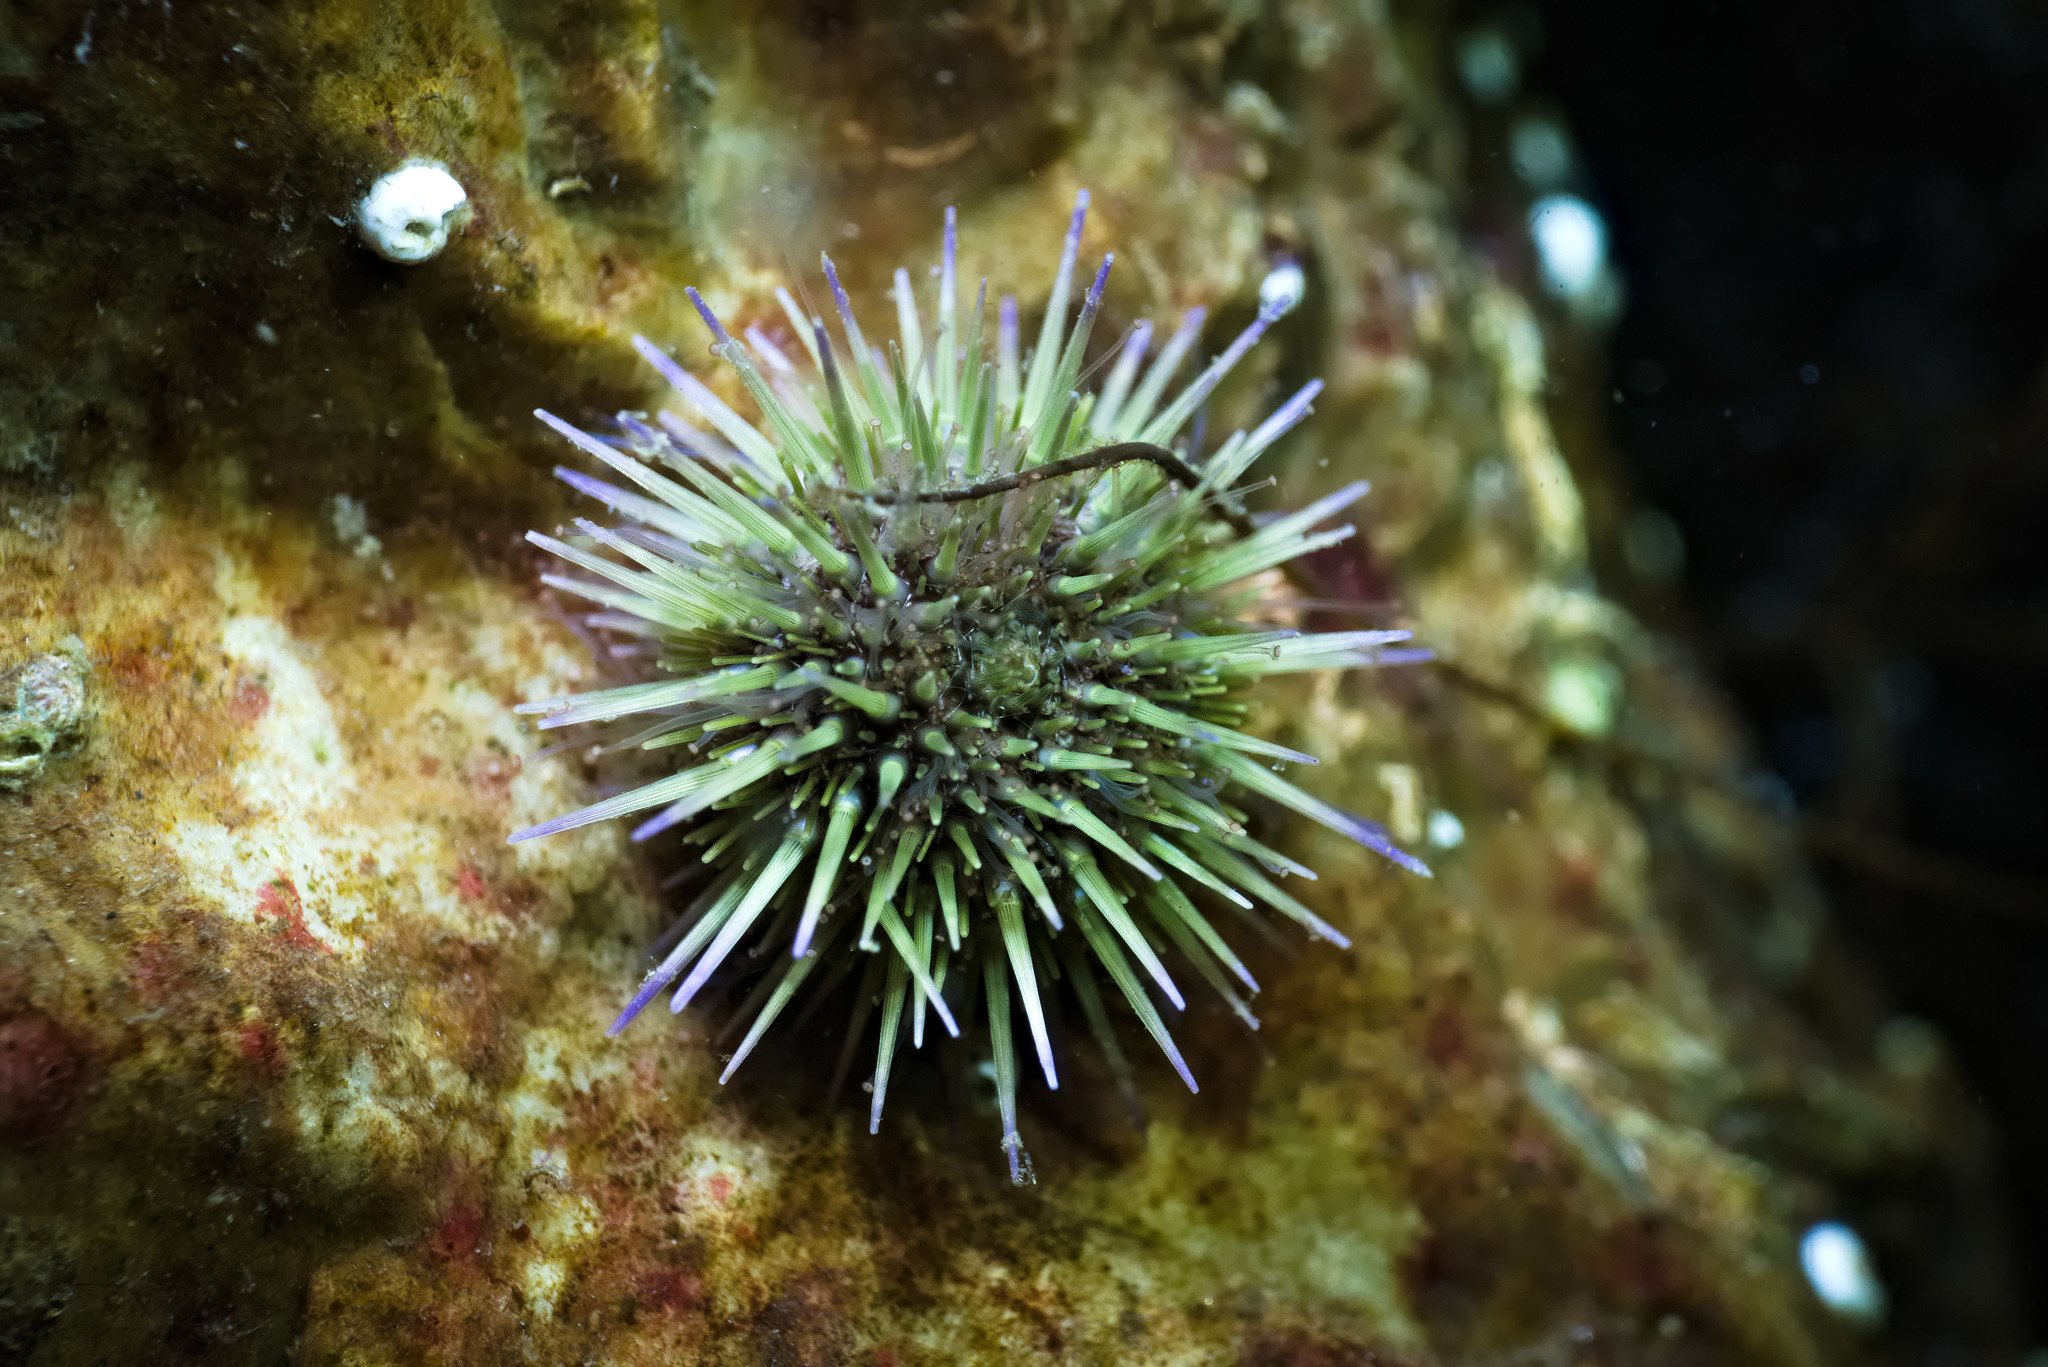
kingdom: Animalia
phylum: Echinodermata
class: Echinoidea
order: Camarodonta
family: Parechinidae
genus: Psammechinus
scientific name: Psammechinus miliaris
